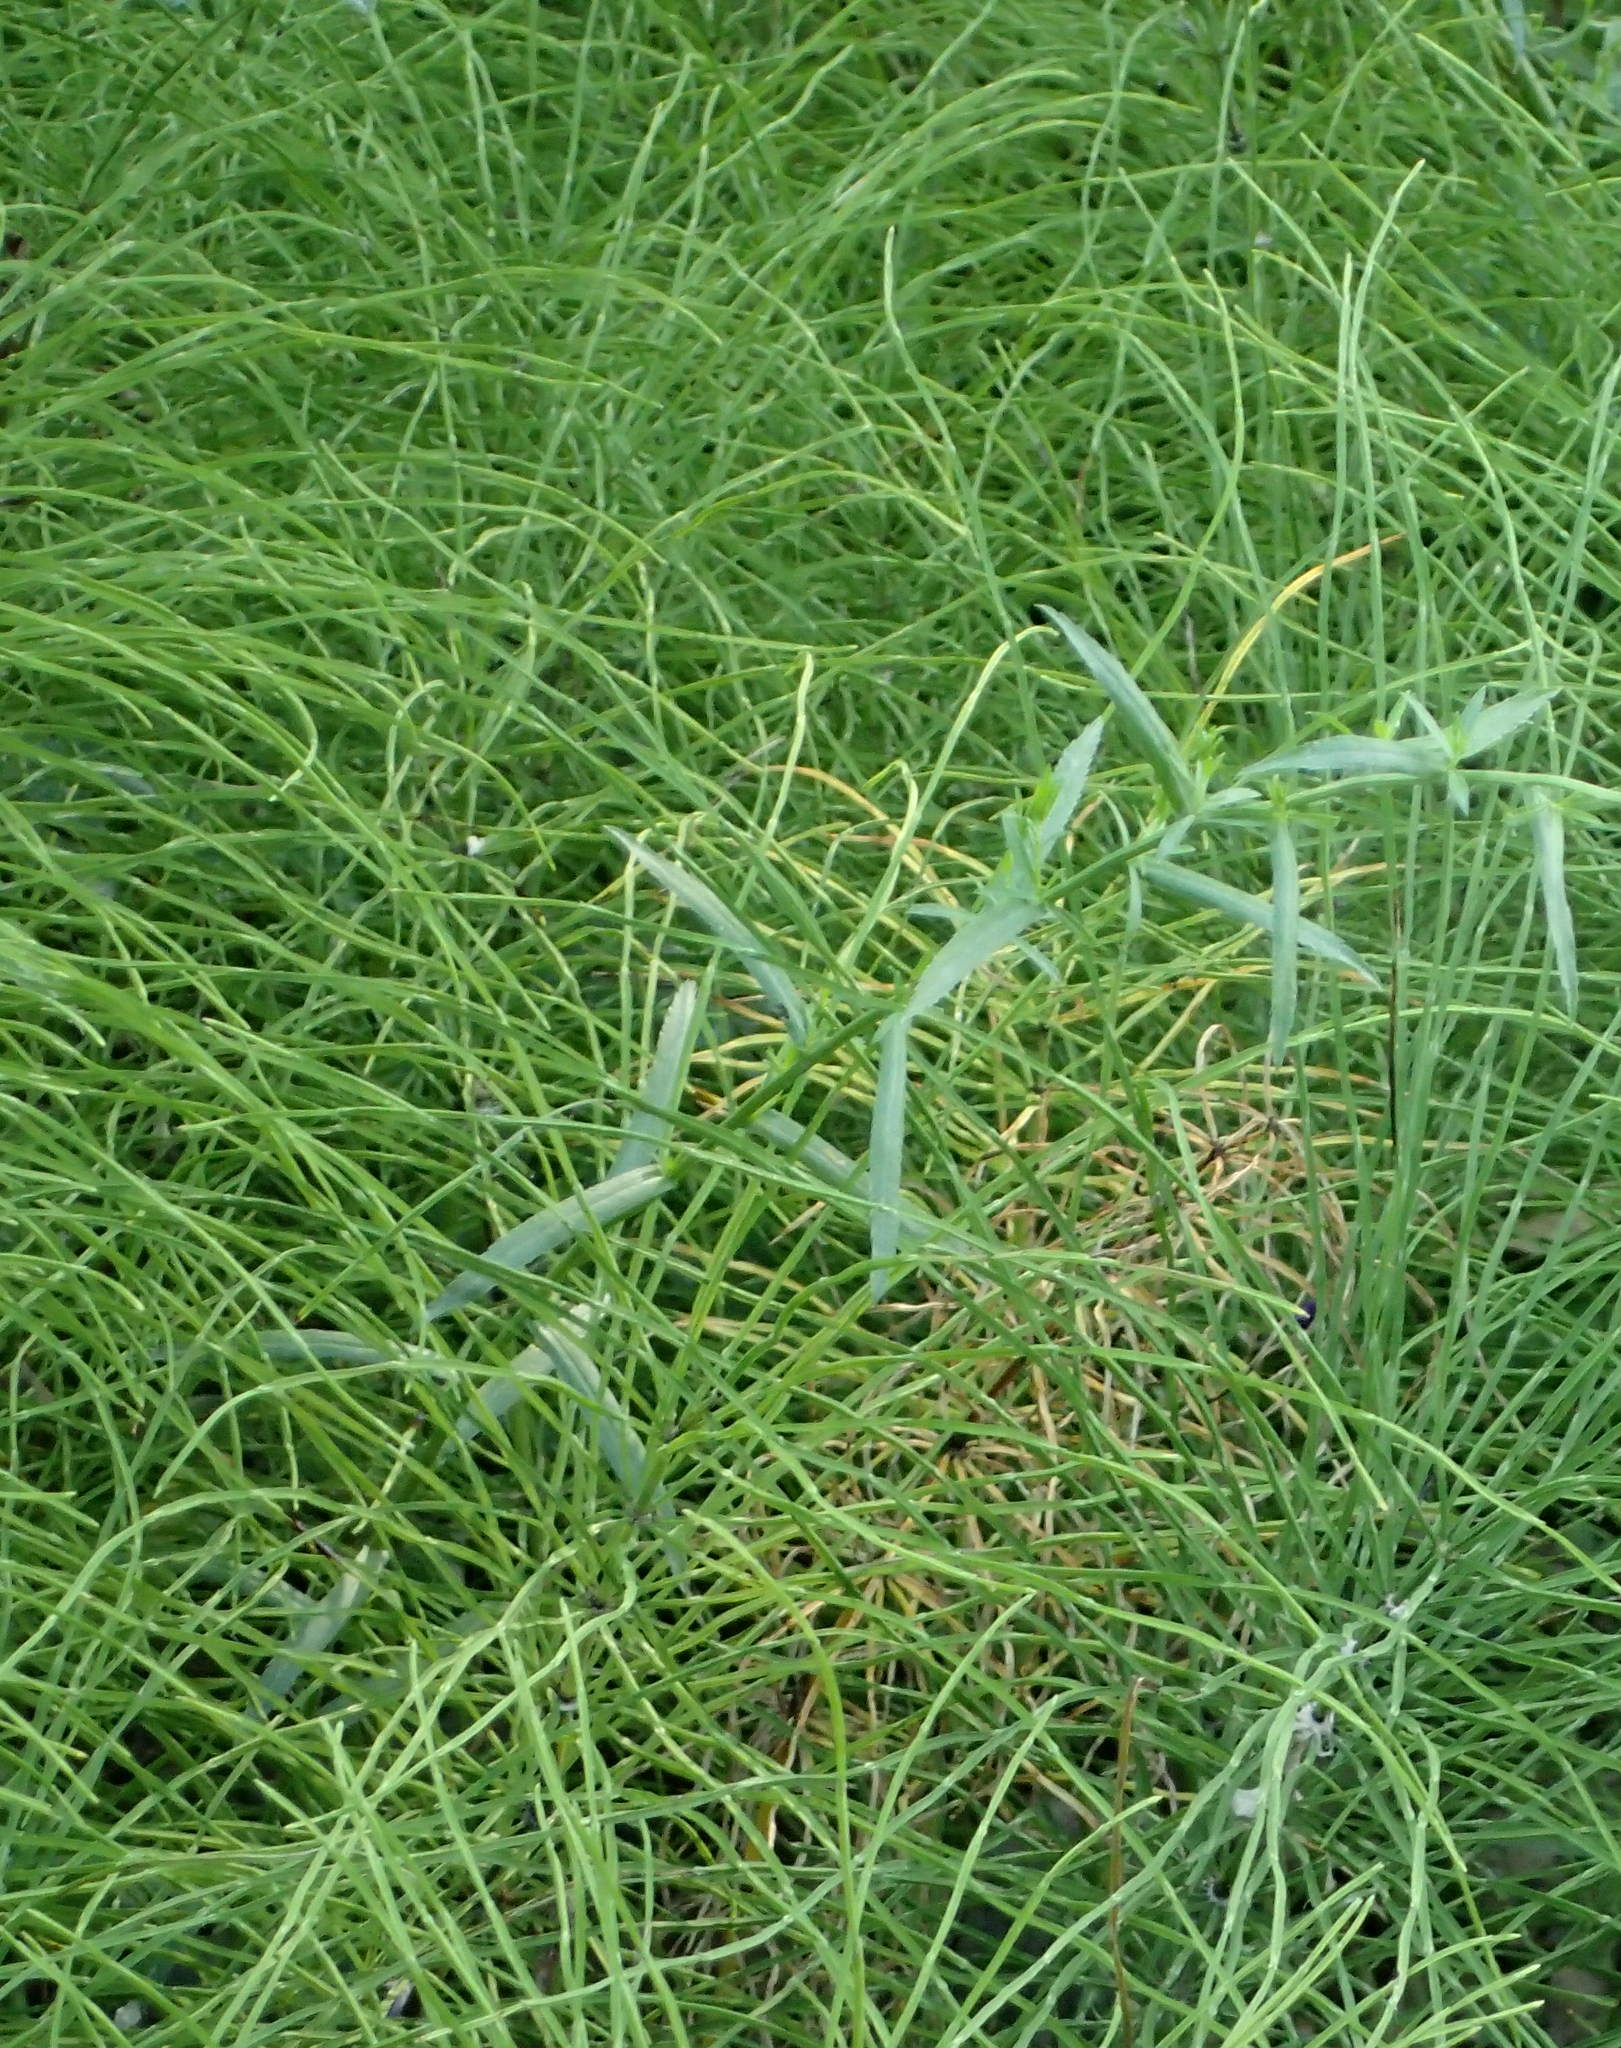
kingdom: Plantae
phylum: Tracheophyta
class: Polypodiopsida
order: Equisetales
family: Equisetaceae
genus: Equisetum
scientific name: Equisetum arvense
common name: Field horsetail
